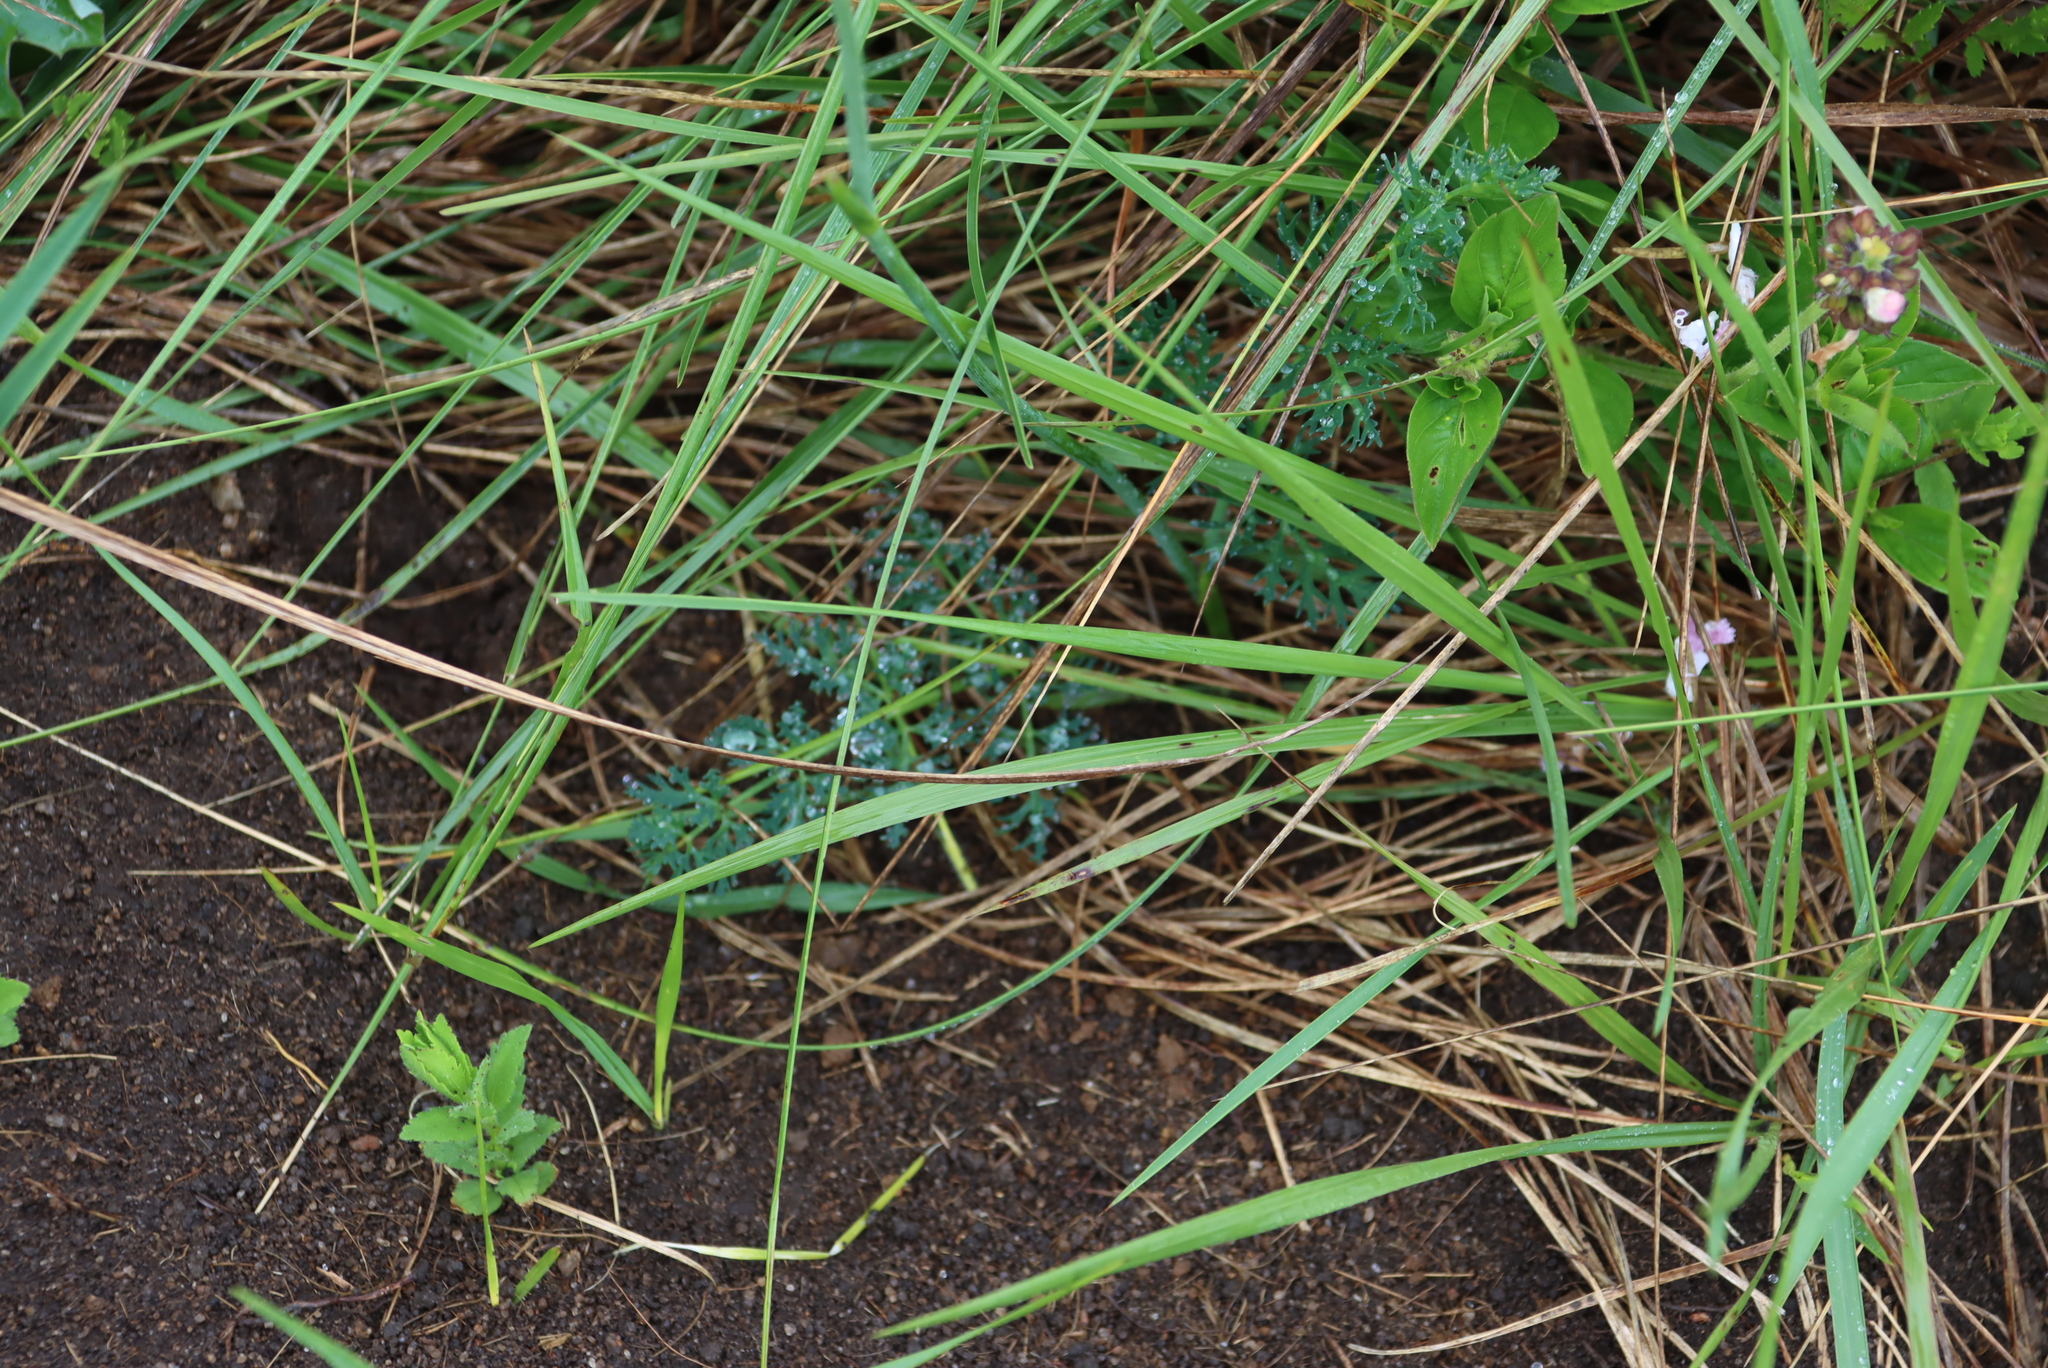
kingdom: Plantae
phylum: Tracheophyta
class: Magnoliopsida
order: Apiales
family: Apiaceae
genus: Afrosciadium
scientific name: Afrosciadium magalismontanum
